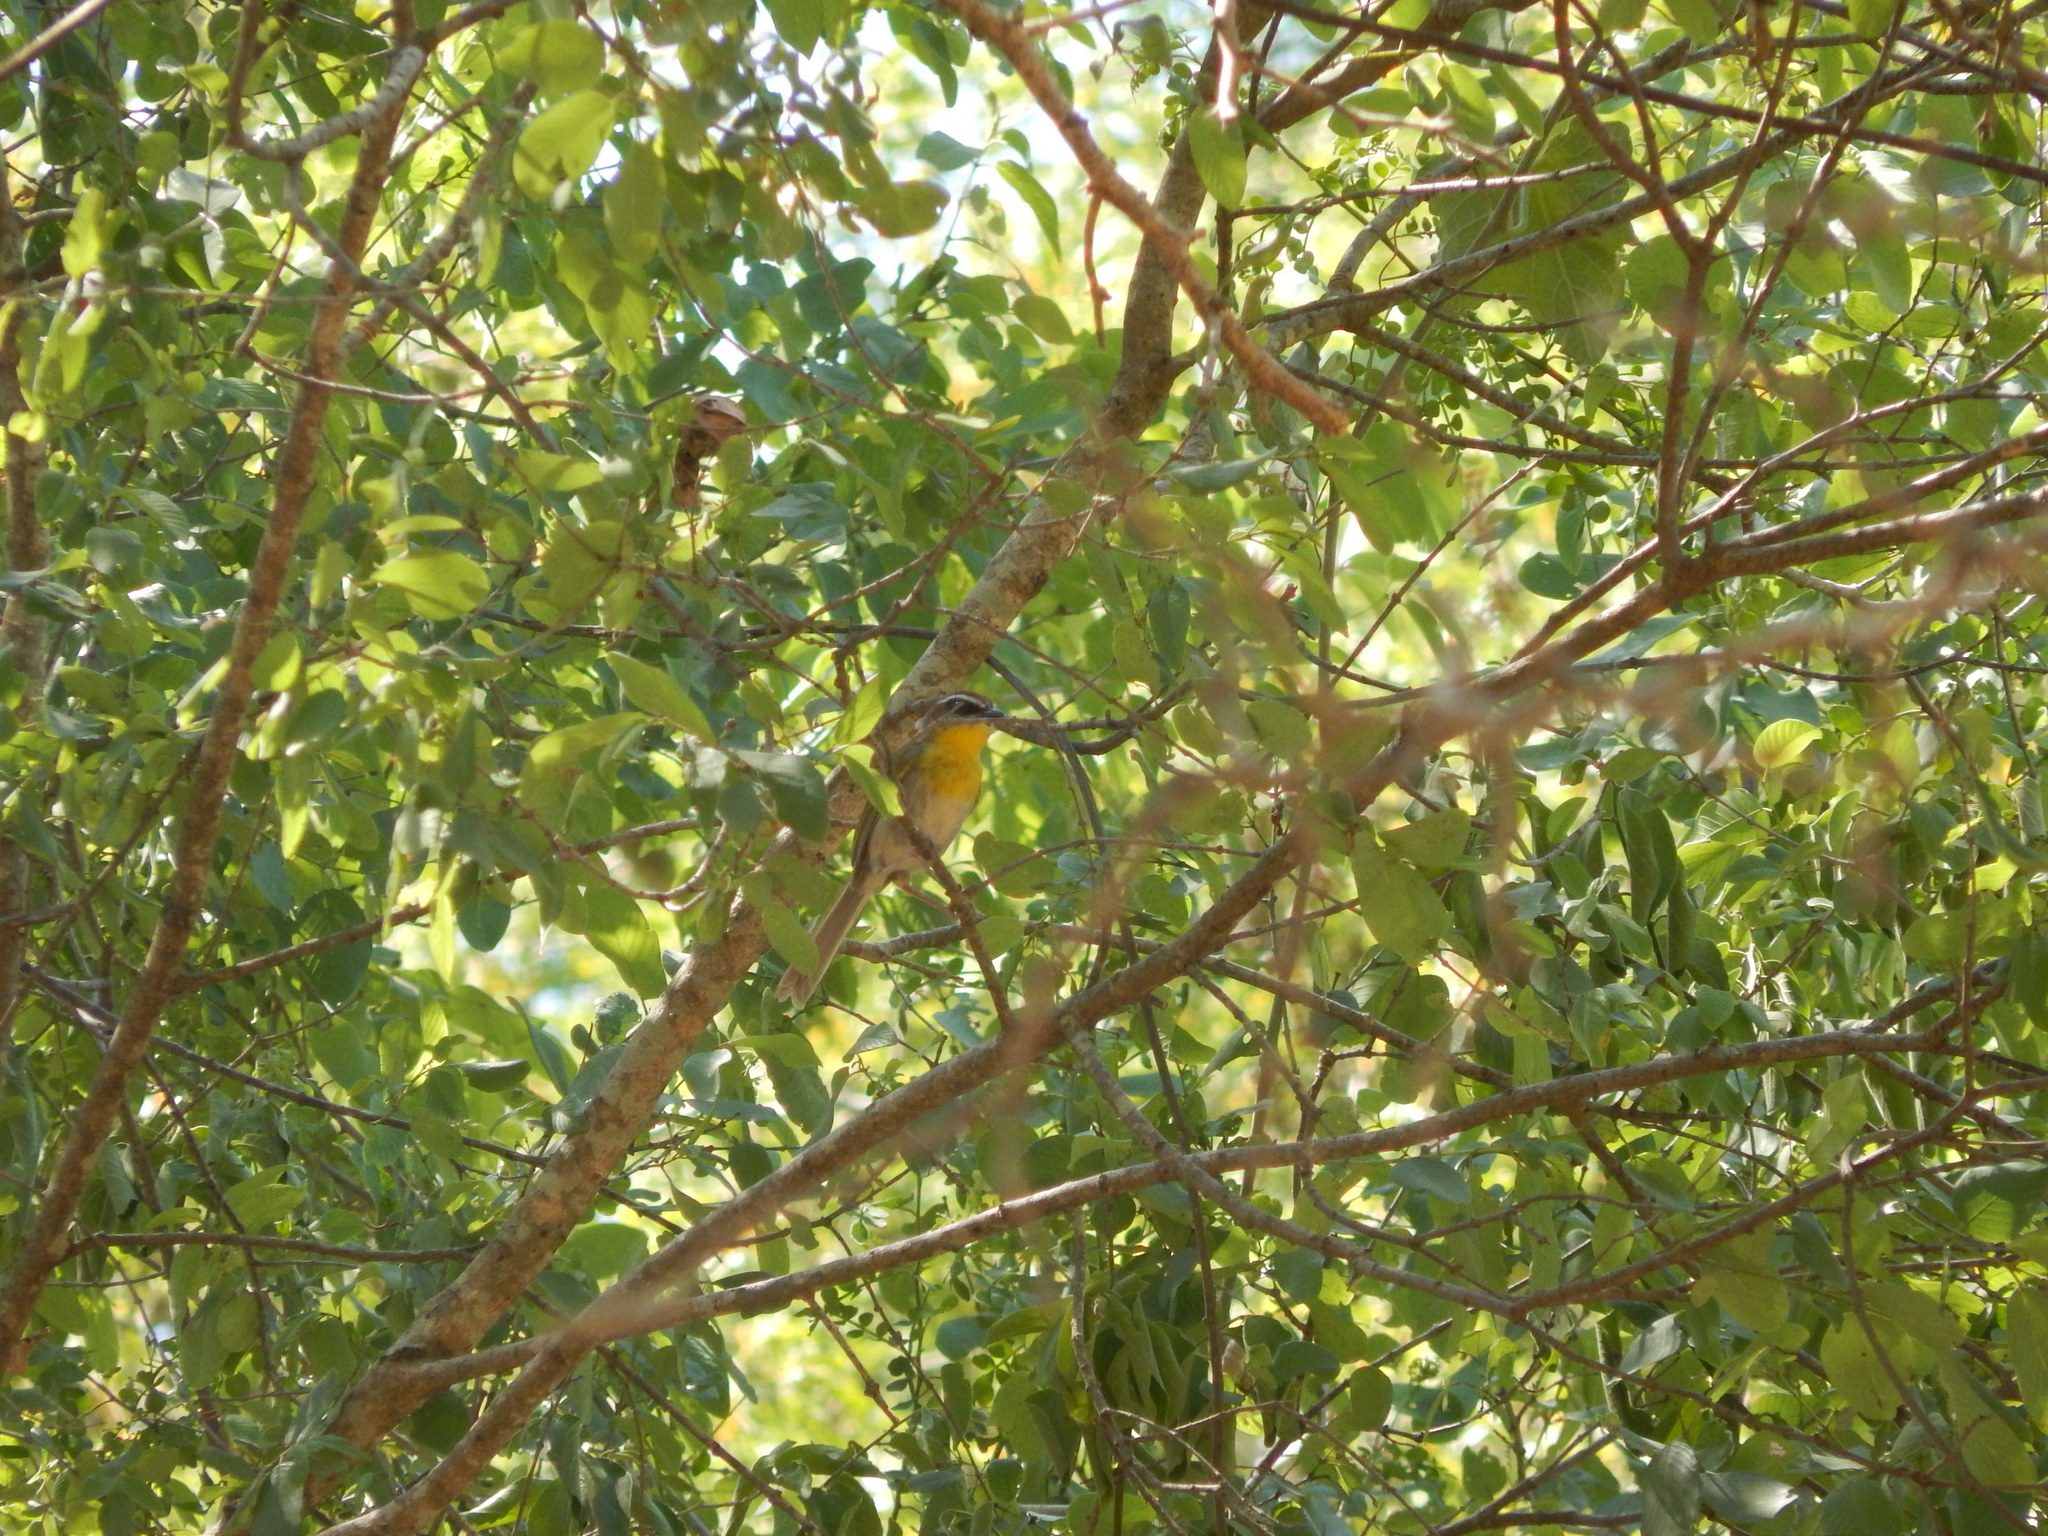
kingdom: Animalia
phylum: Chordata
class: Aves
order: Passeriformes
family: Parulidae
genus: Basileuterus
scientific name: Basileuterus rufifrons
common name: Rufous-capped warbler
